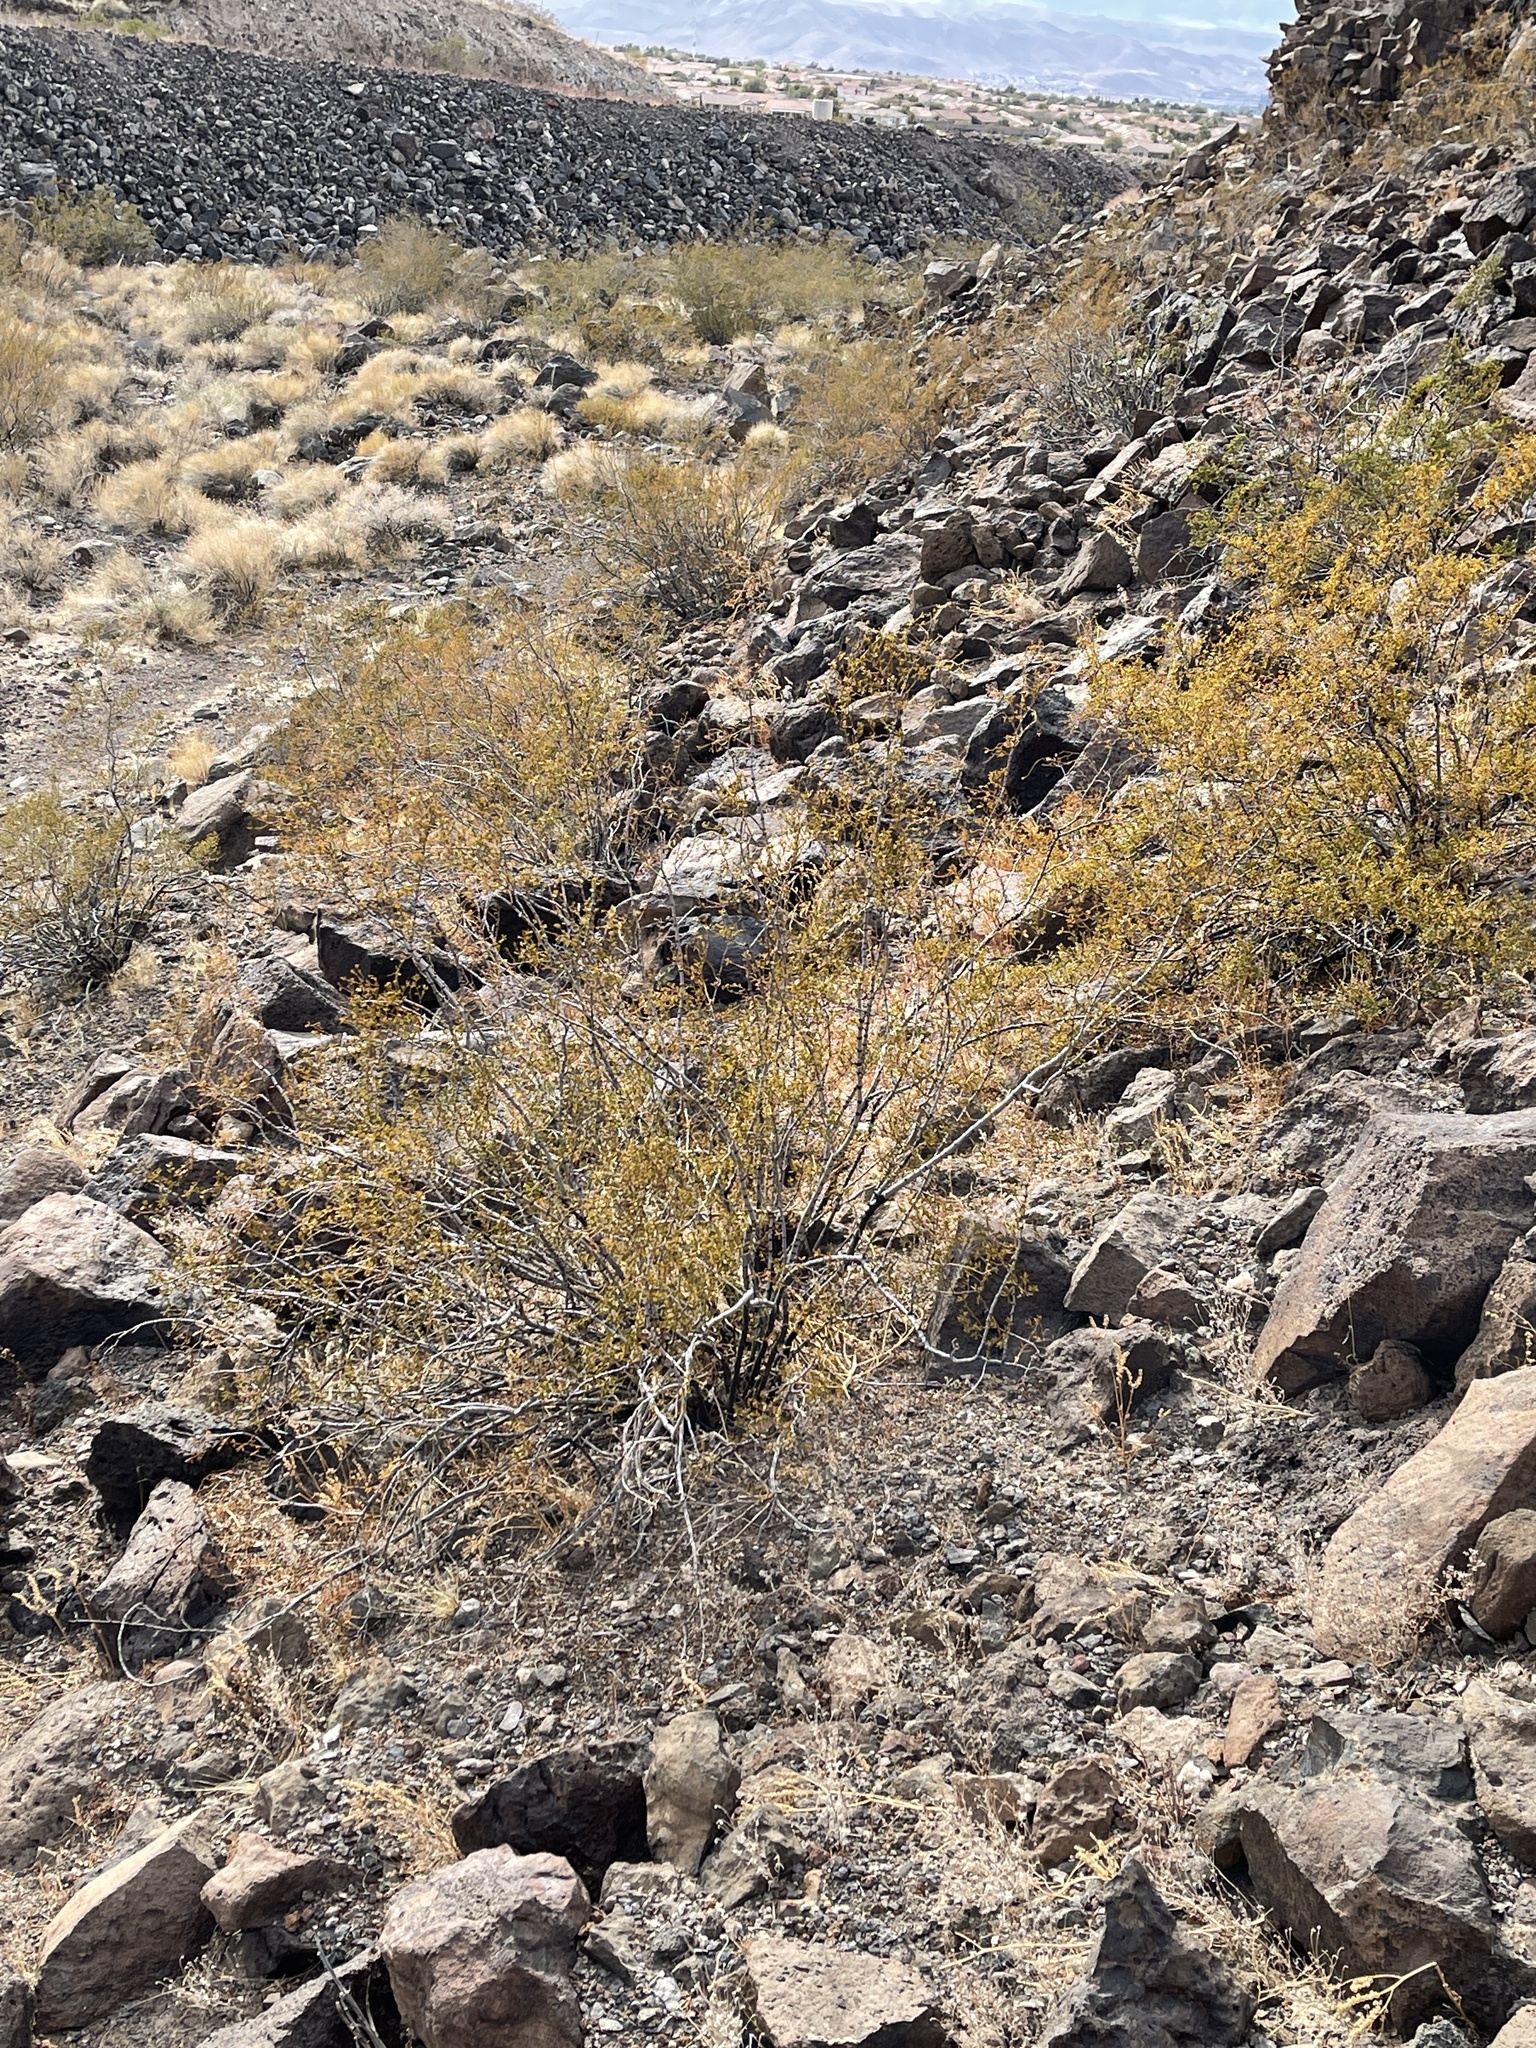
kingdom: Plantae
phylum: Tracheophyta
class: Magnoliopsida
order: Zygophyllales
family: Zygophyllaceae
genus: Larrea
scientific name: Larrea tridentata
